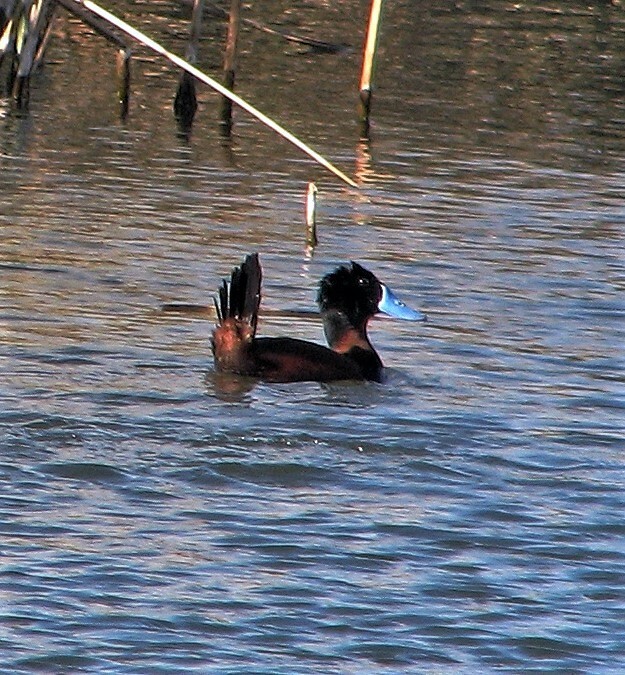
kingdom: Animalia
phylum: Chordata
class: Aves
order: Anseriformes
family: Anatidae
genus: Oxyura
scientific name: Oxyura ferruginea
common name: Andean duck
